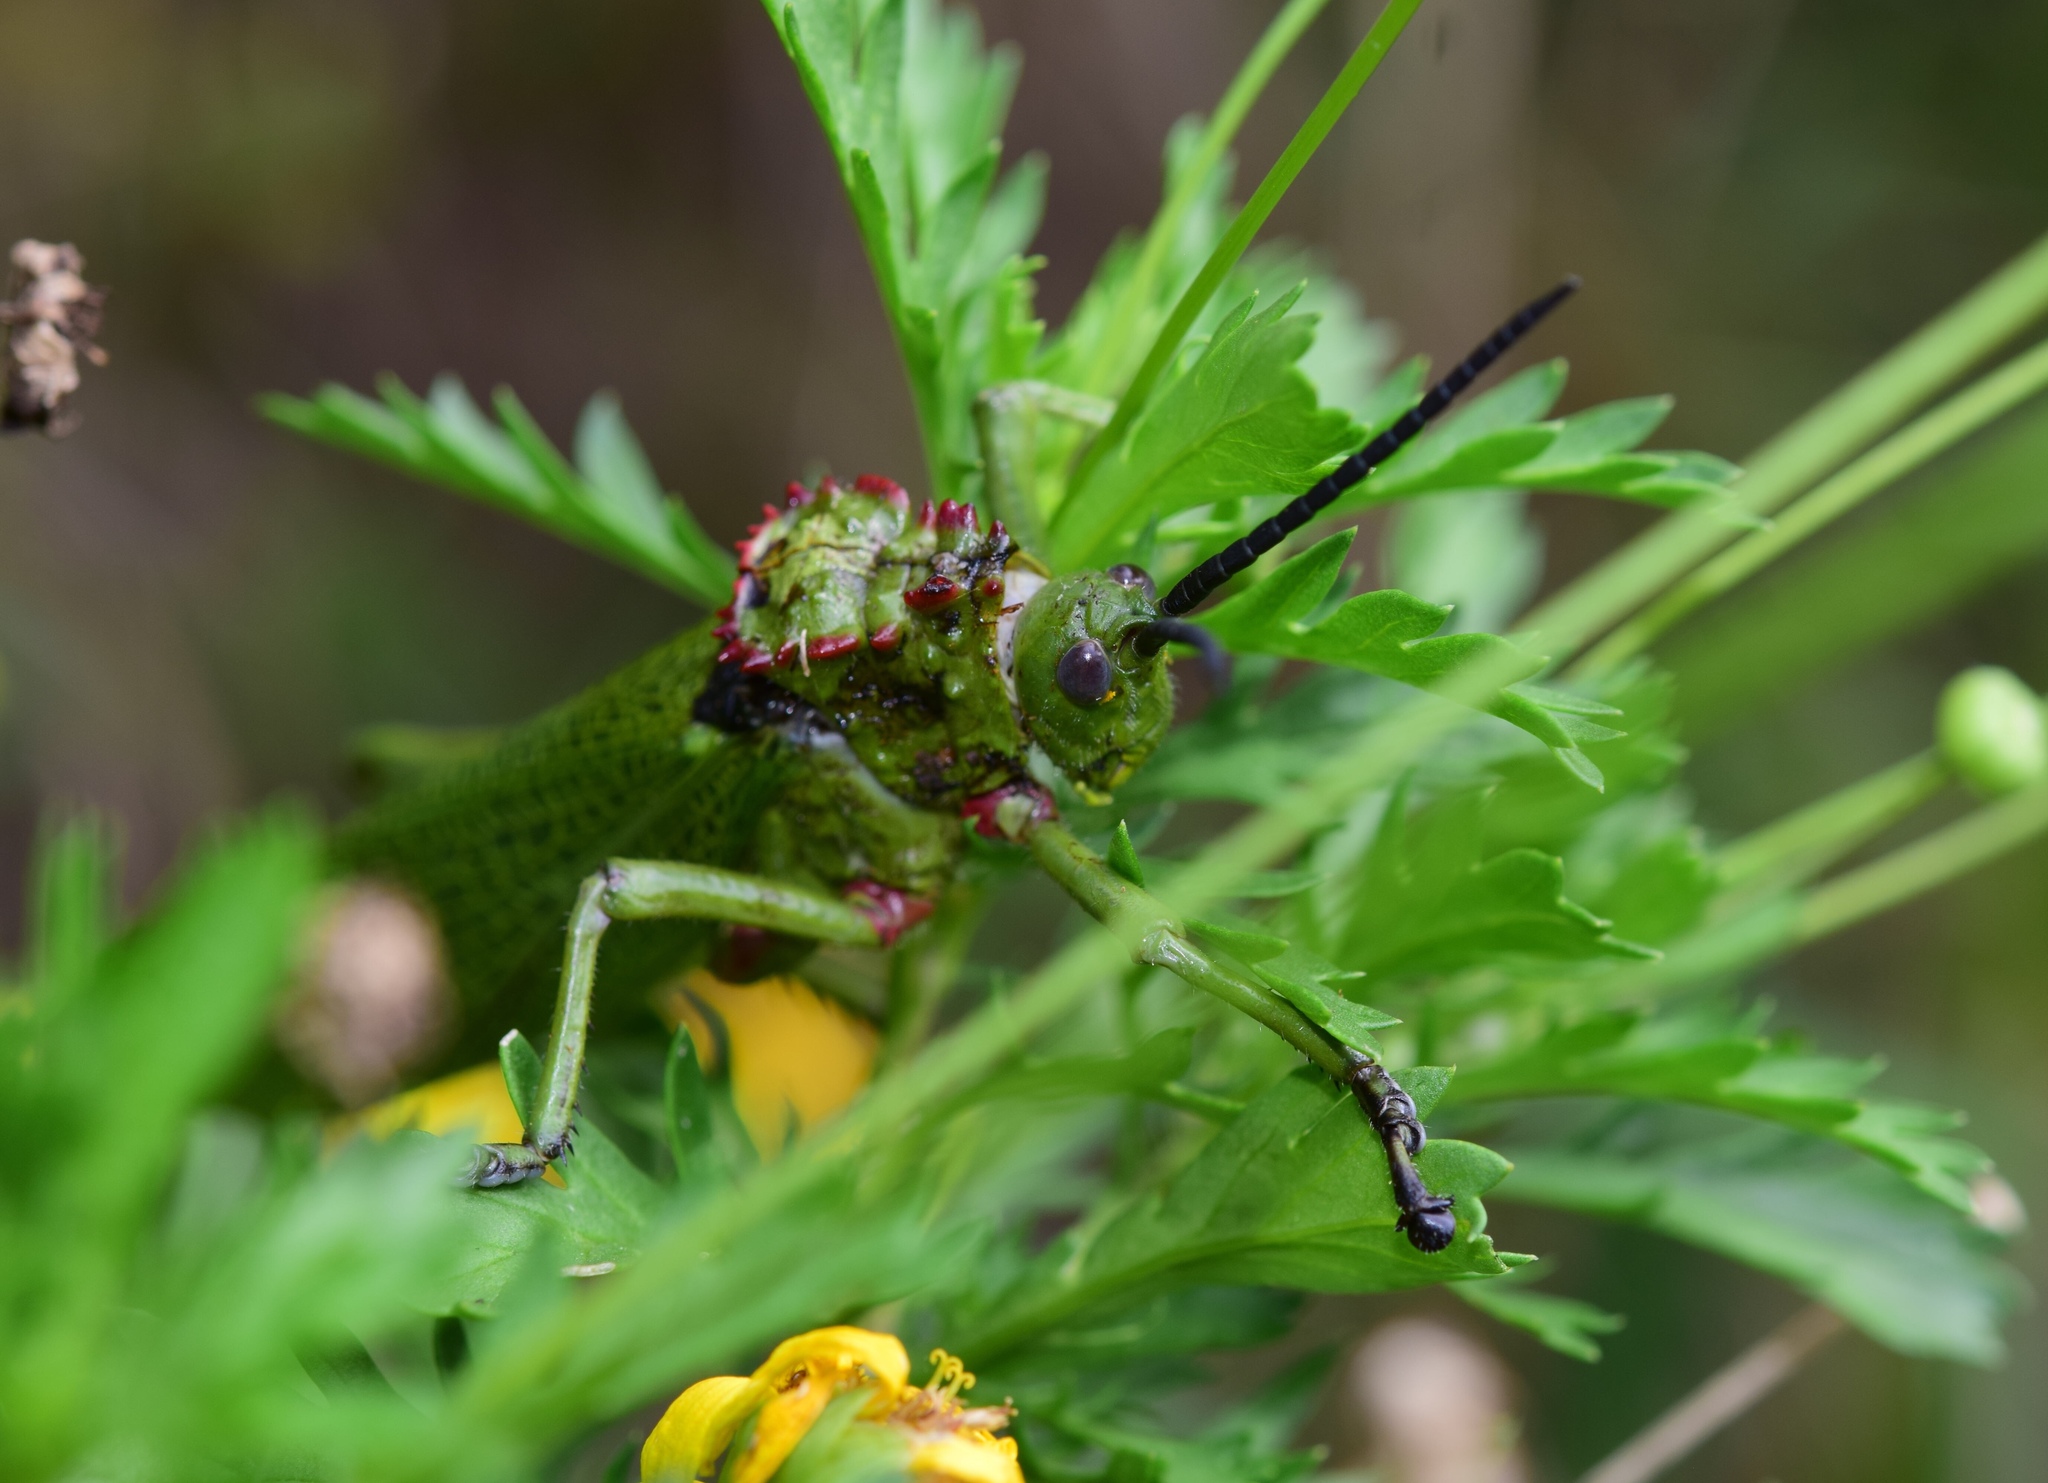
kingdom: Animalia
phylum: Arthropoda
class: Insecta
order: Orthoptera
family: Pyrgomorphidae
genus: Phymateus
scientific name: Phymateus viridipes
